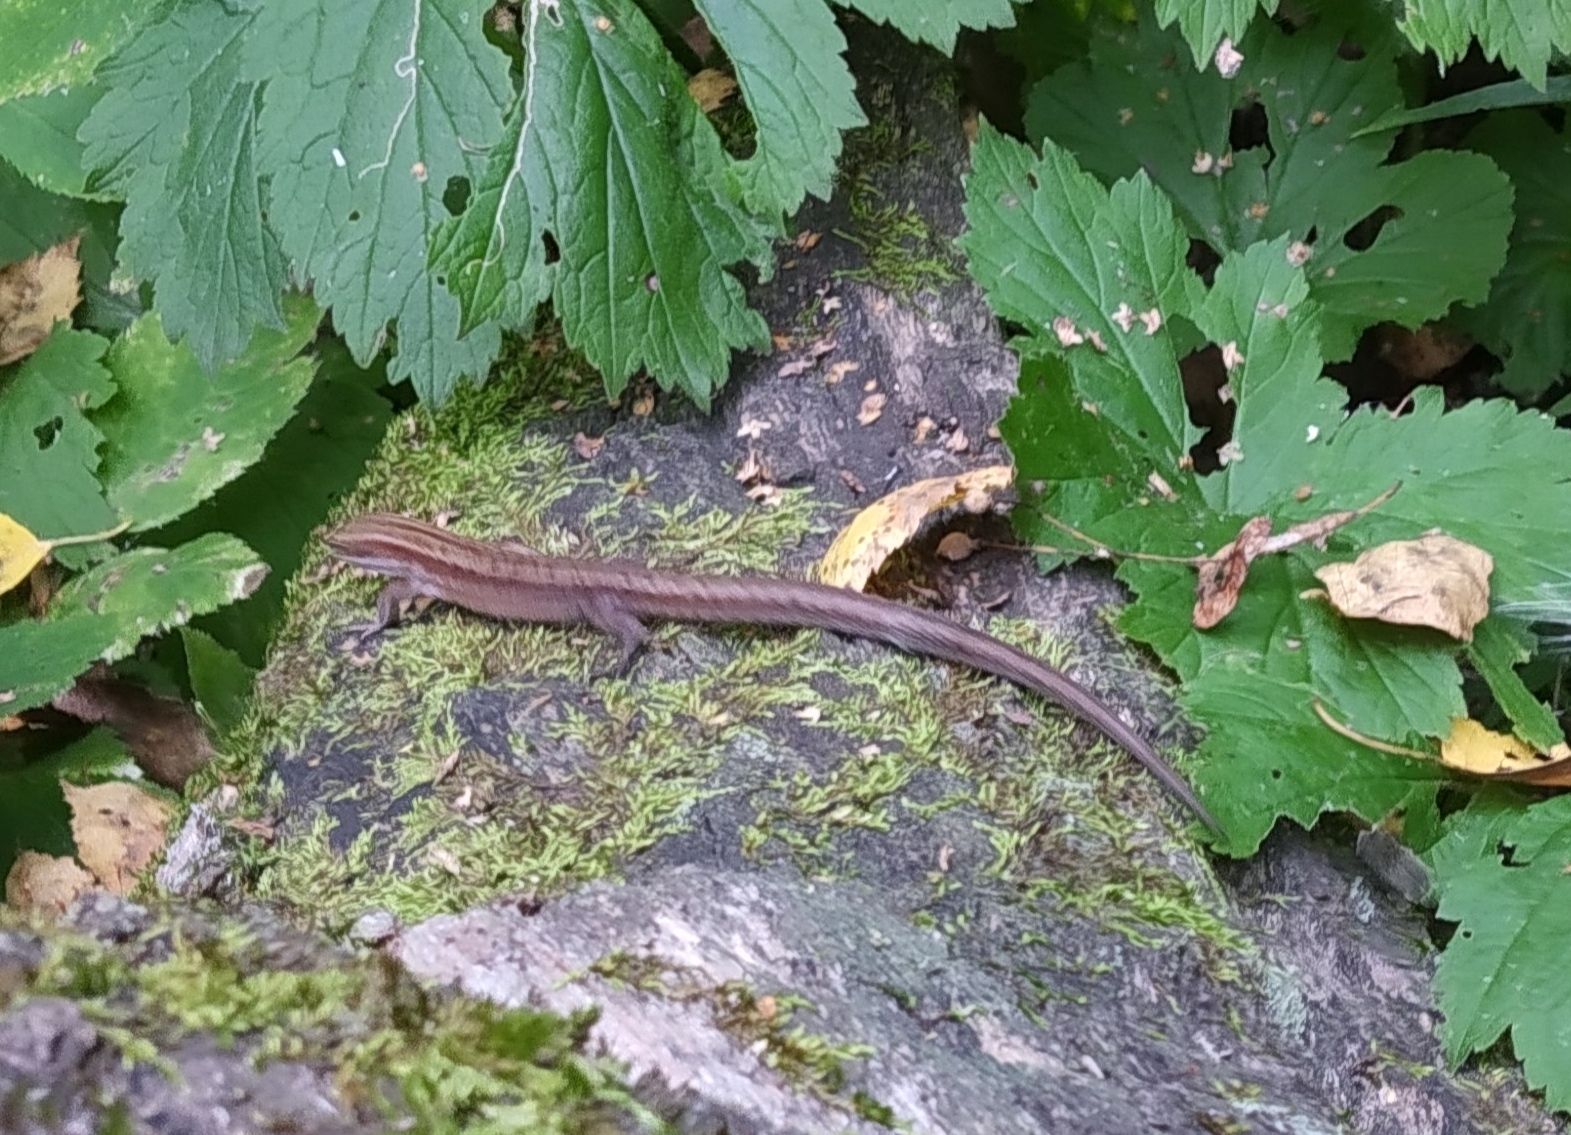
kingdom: Animalia
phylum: Chordata
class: Squamata
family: Lacertidae
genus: Zootoca
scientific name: Zootoca vivipara
